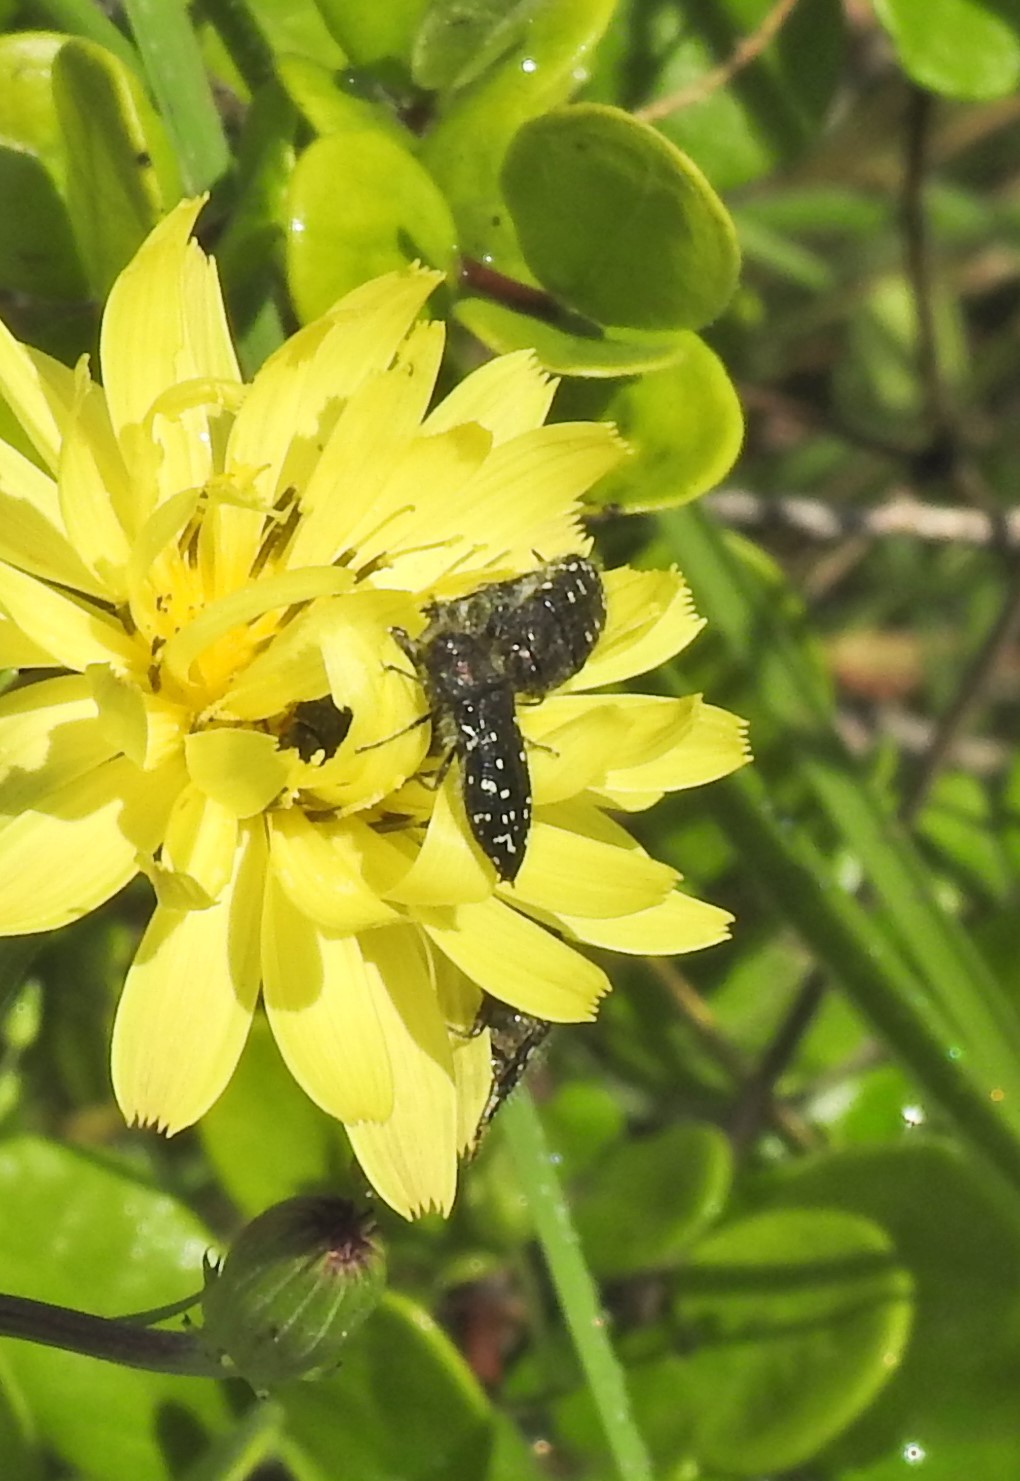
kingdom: Animalia
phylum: Arthropoda
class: Insecta
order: Coleoptera
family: Buprestidae
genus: Acmaeodera
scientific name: Acmaeodera ornatoides
